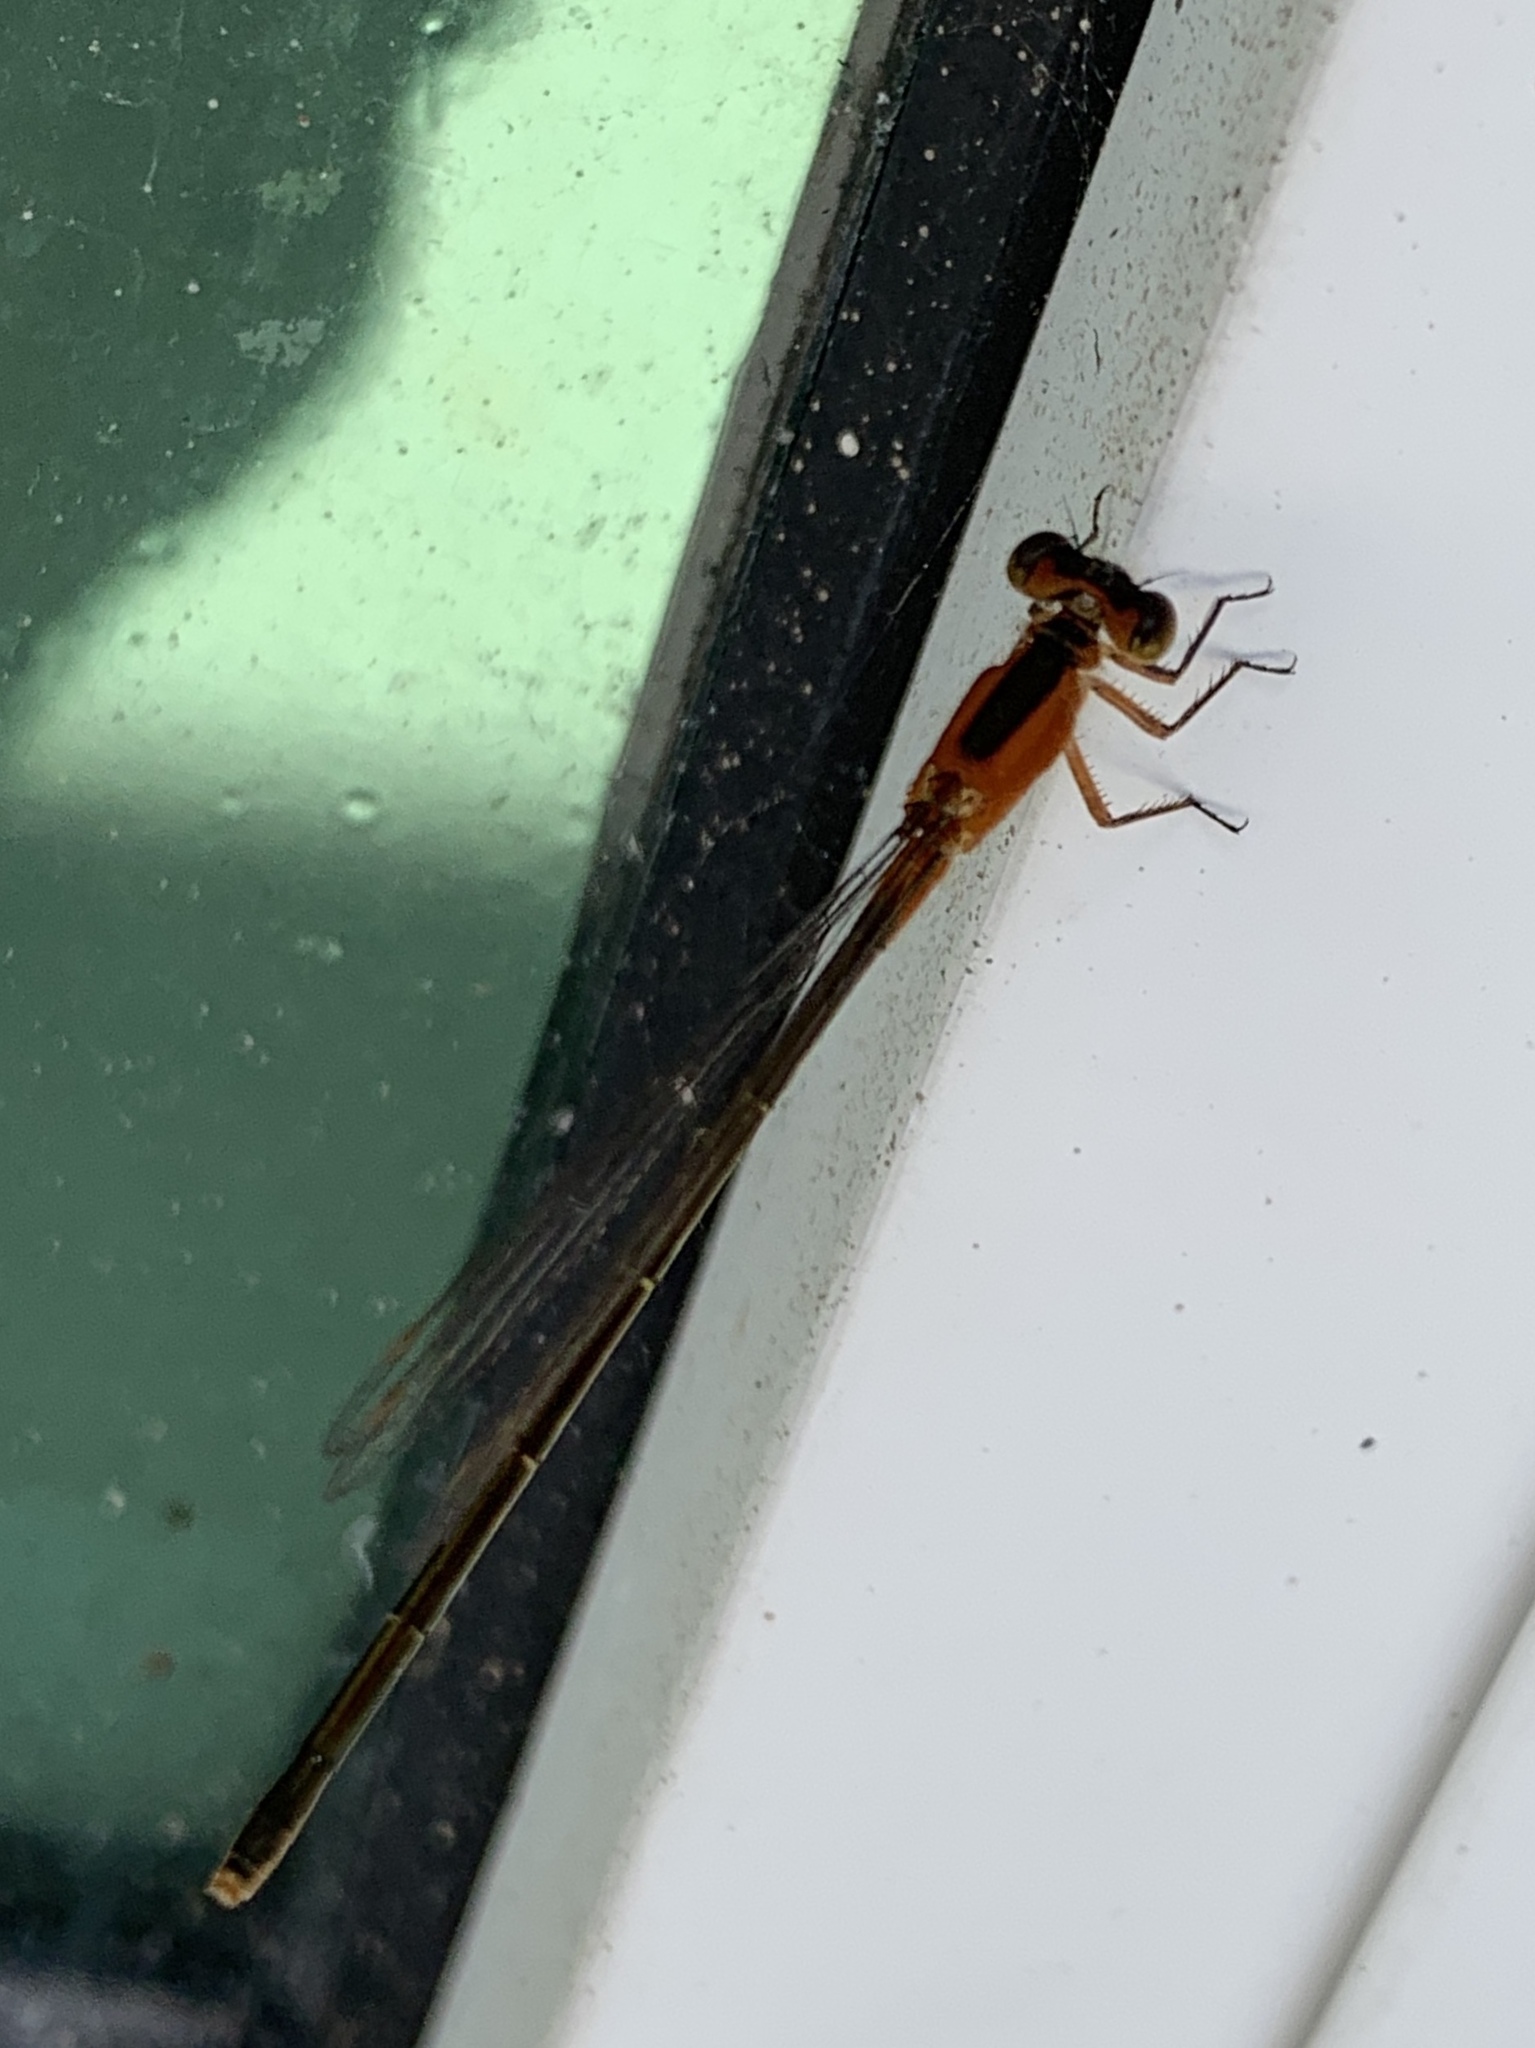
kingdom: Animalia
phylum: Arthropoda
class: Insecta
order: Odonata
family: Coenagrionidae
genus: Ischnura
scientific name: Ischnura ramburii
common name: Rambur's forktail
